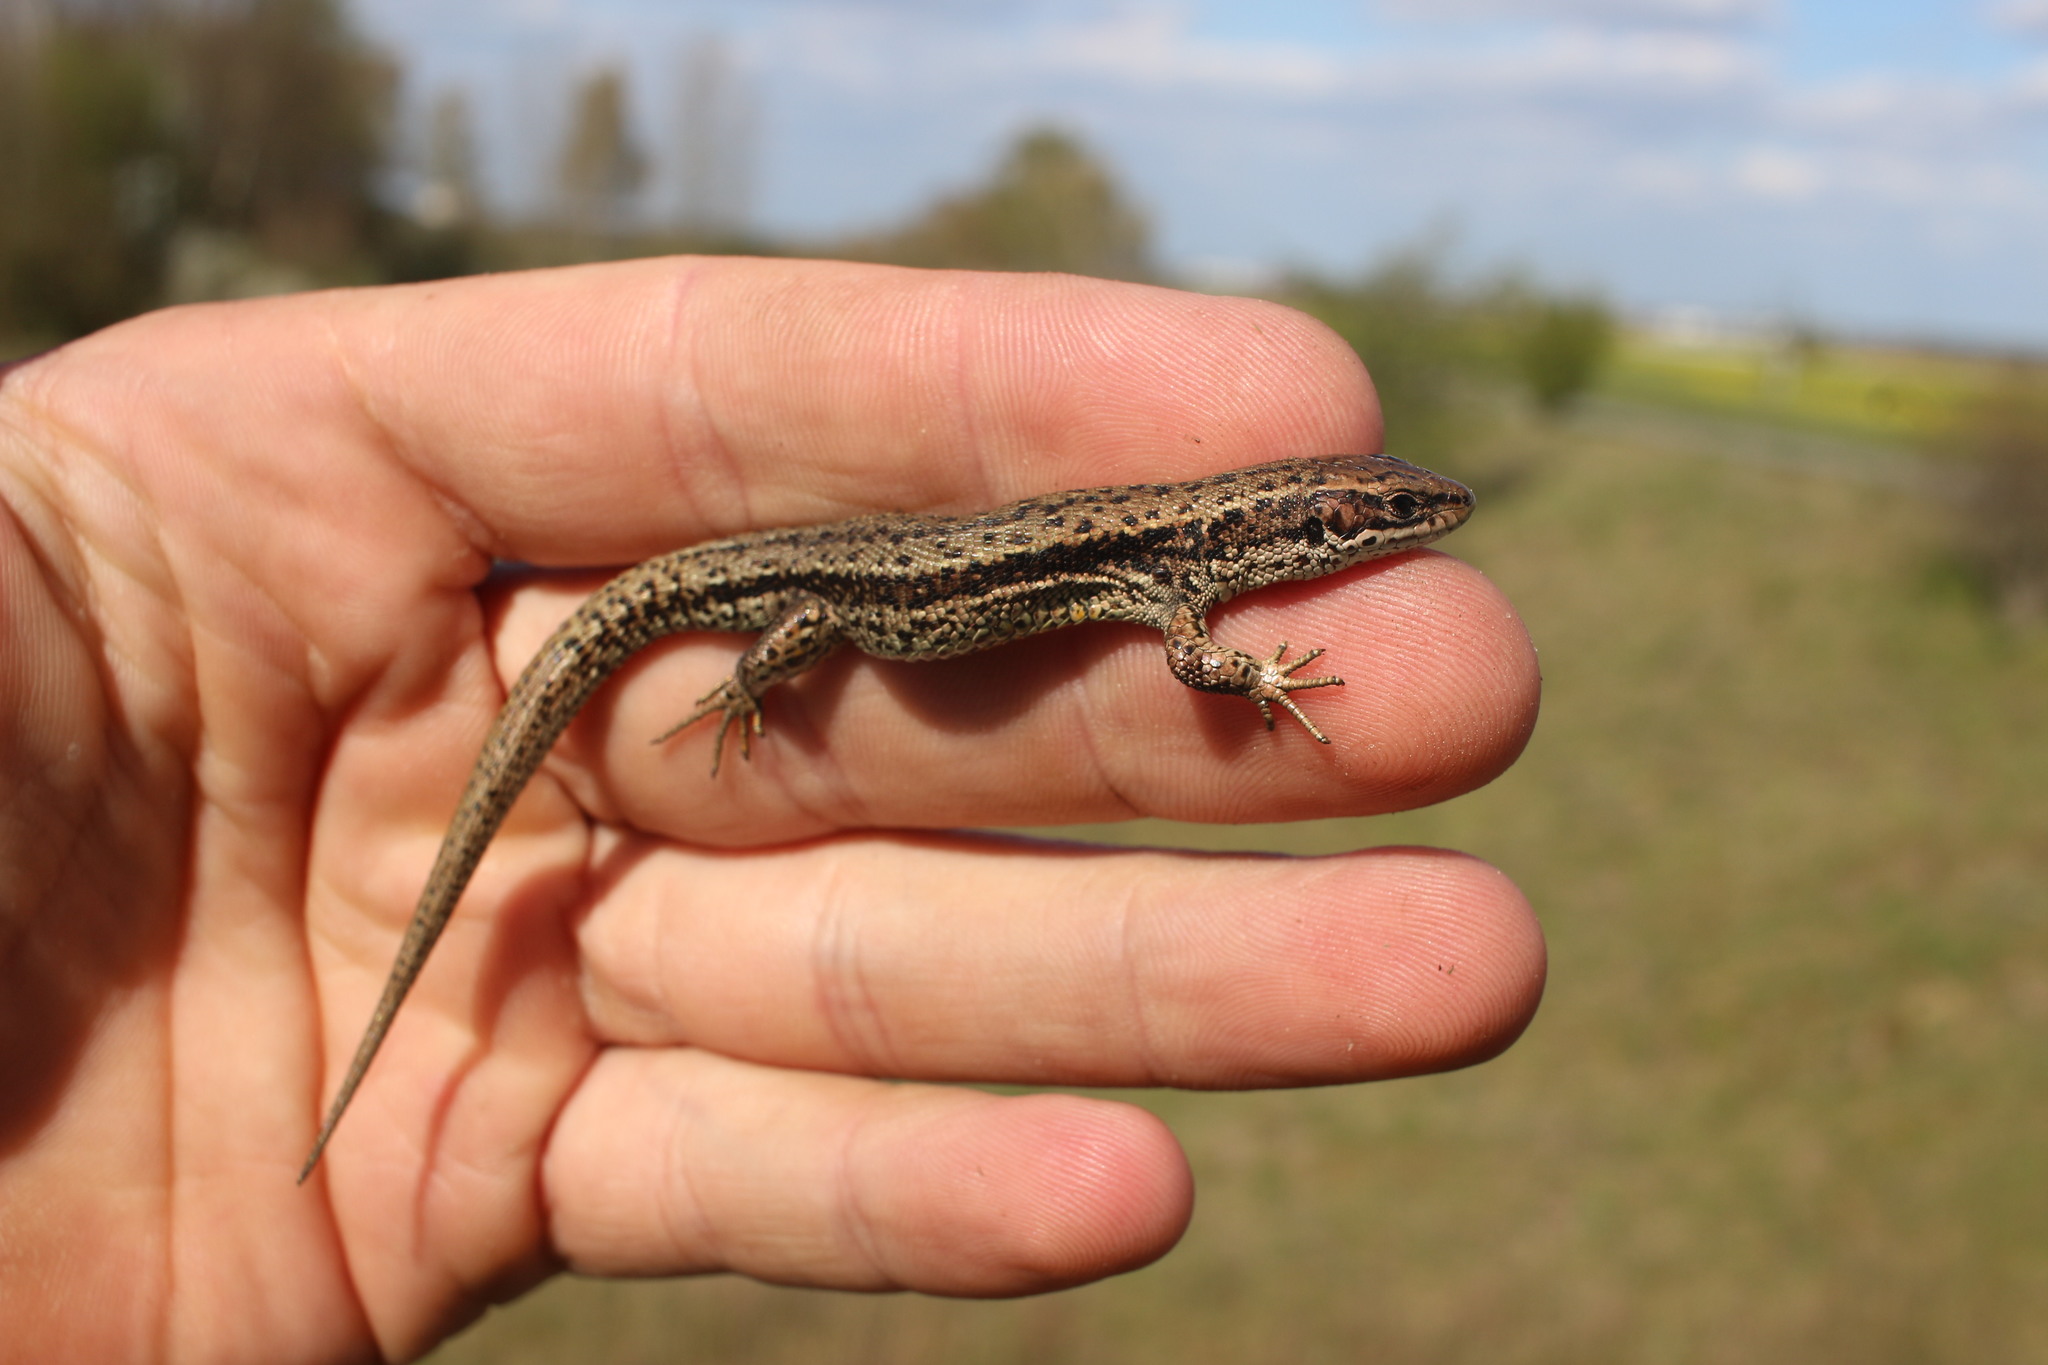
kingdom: Animalia
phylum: Chordata
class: Squamata
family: Lacertidae
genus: Zootoca
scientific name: Zootoca vivipara
